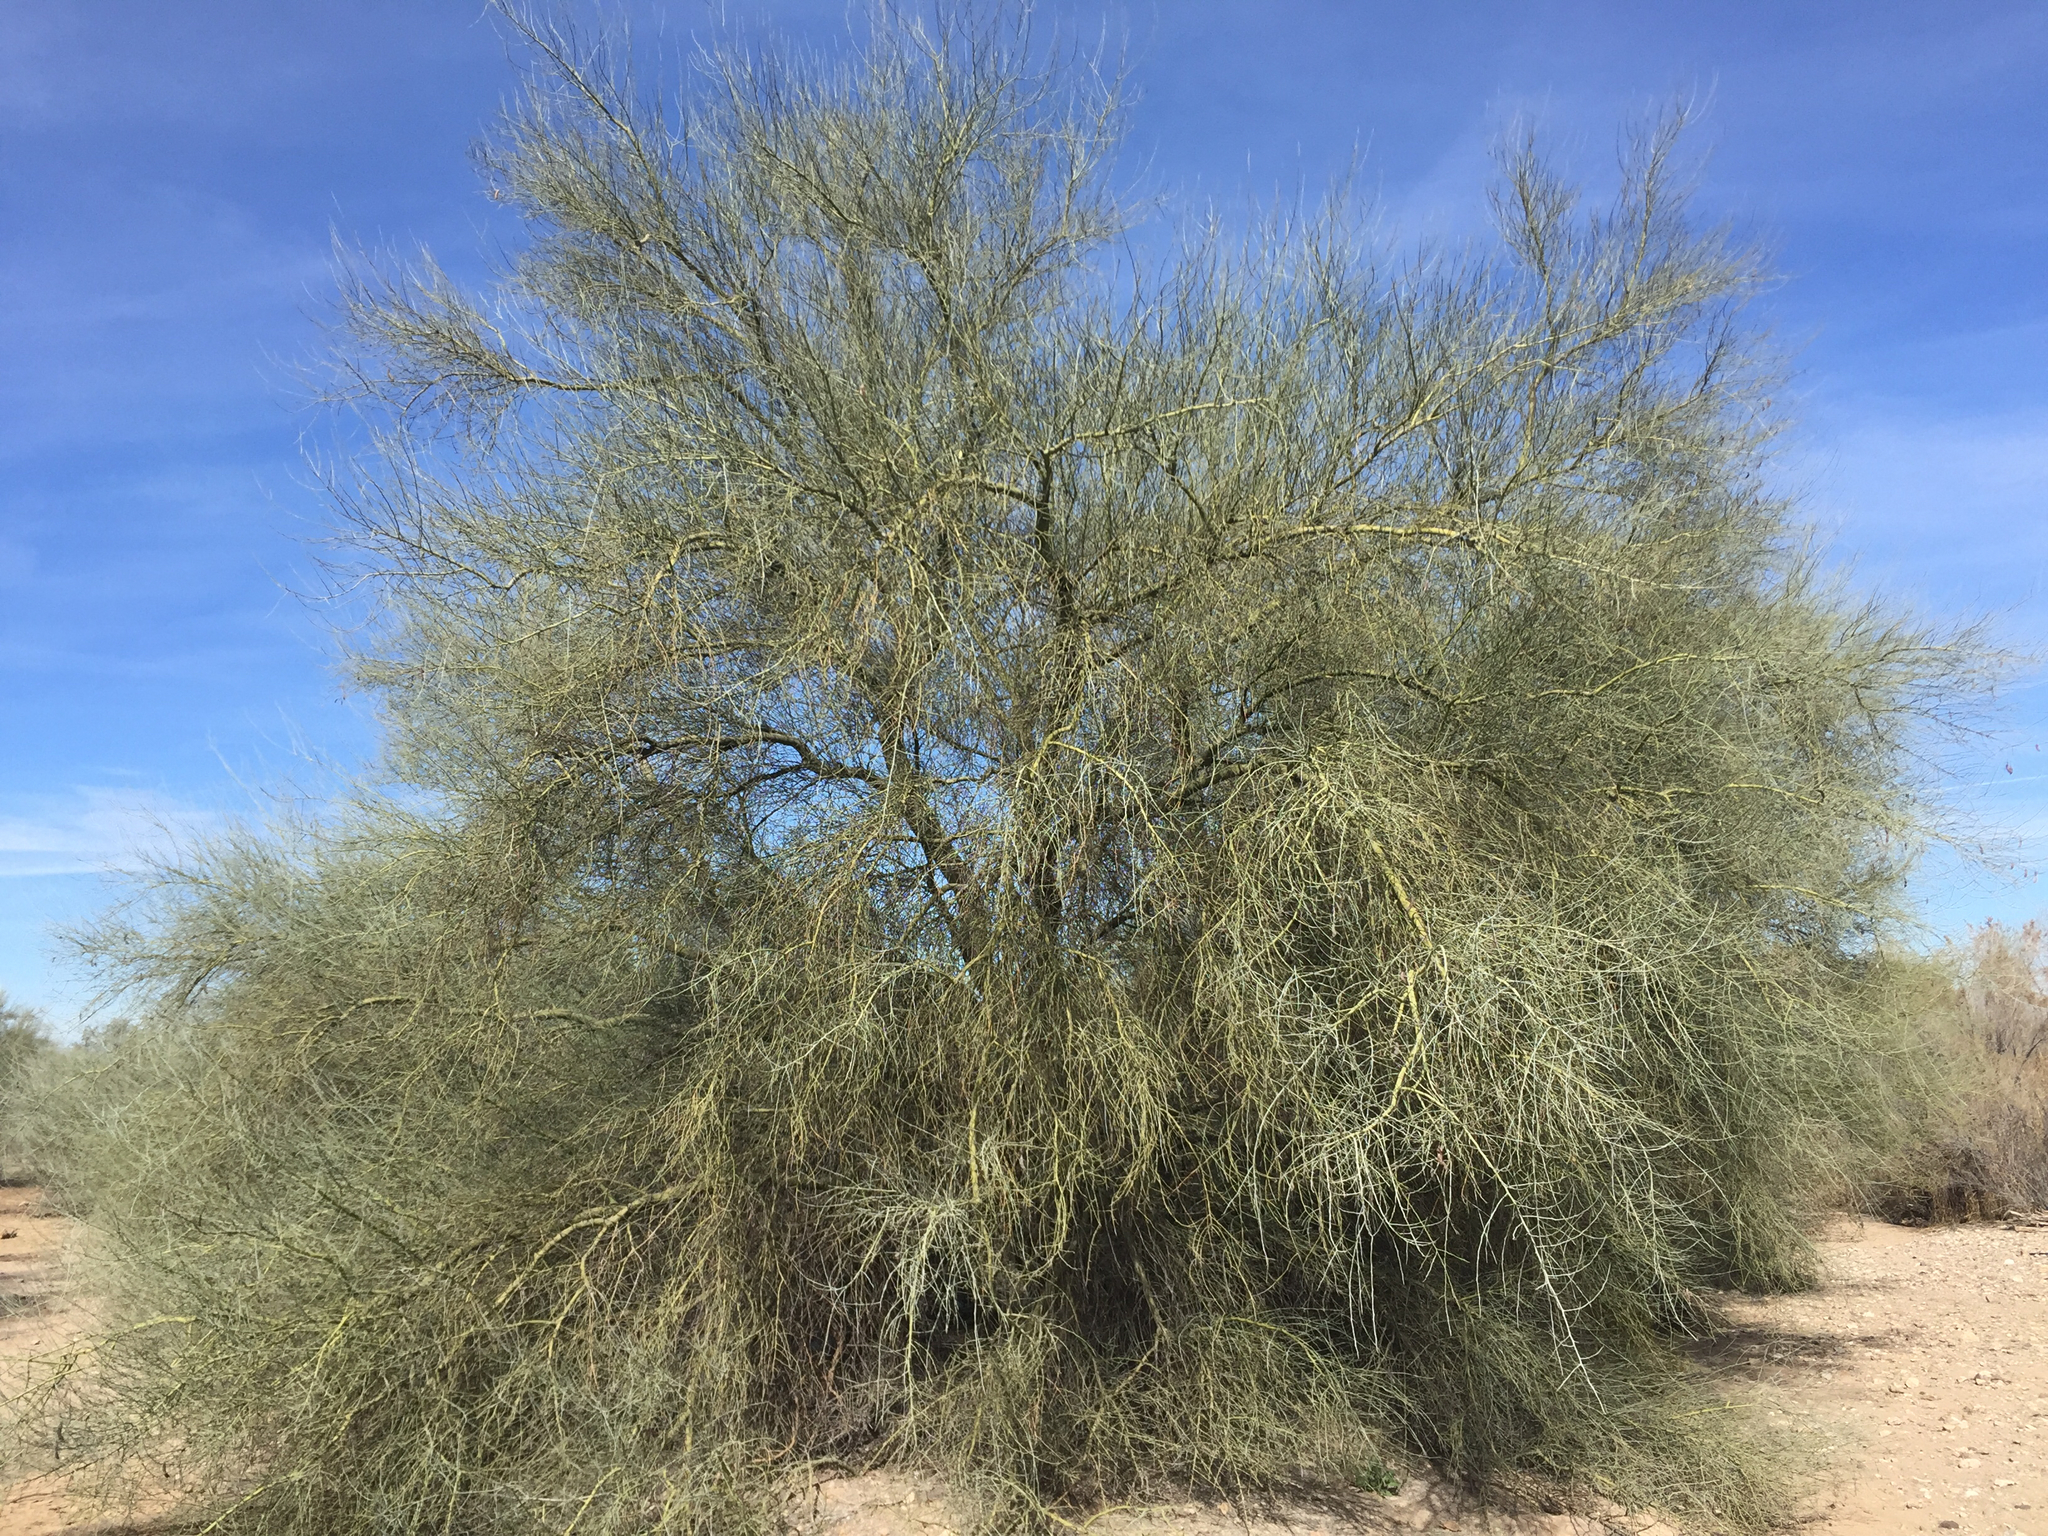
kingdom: Plantae
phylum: Tracheophyta
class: Magnoliopsida
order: Fabales
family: Fabaceae
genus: Parkinsonia
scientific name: Parkinsonia florida
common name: Blue paloverde
